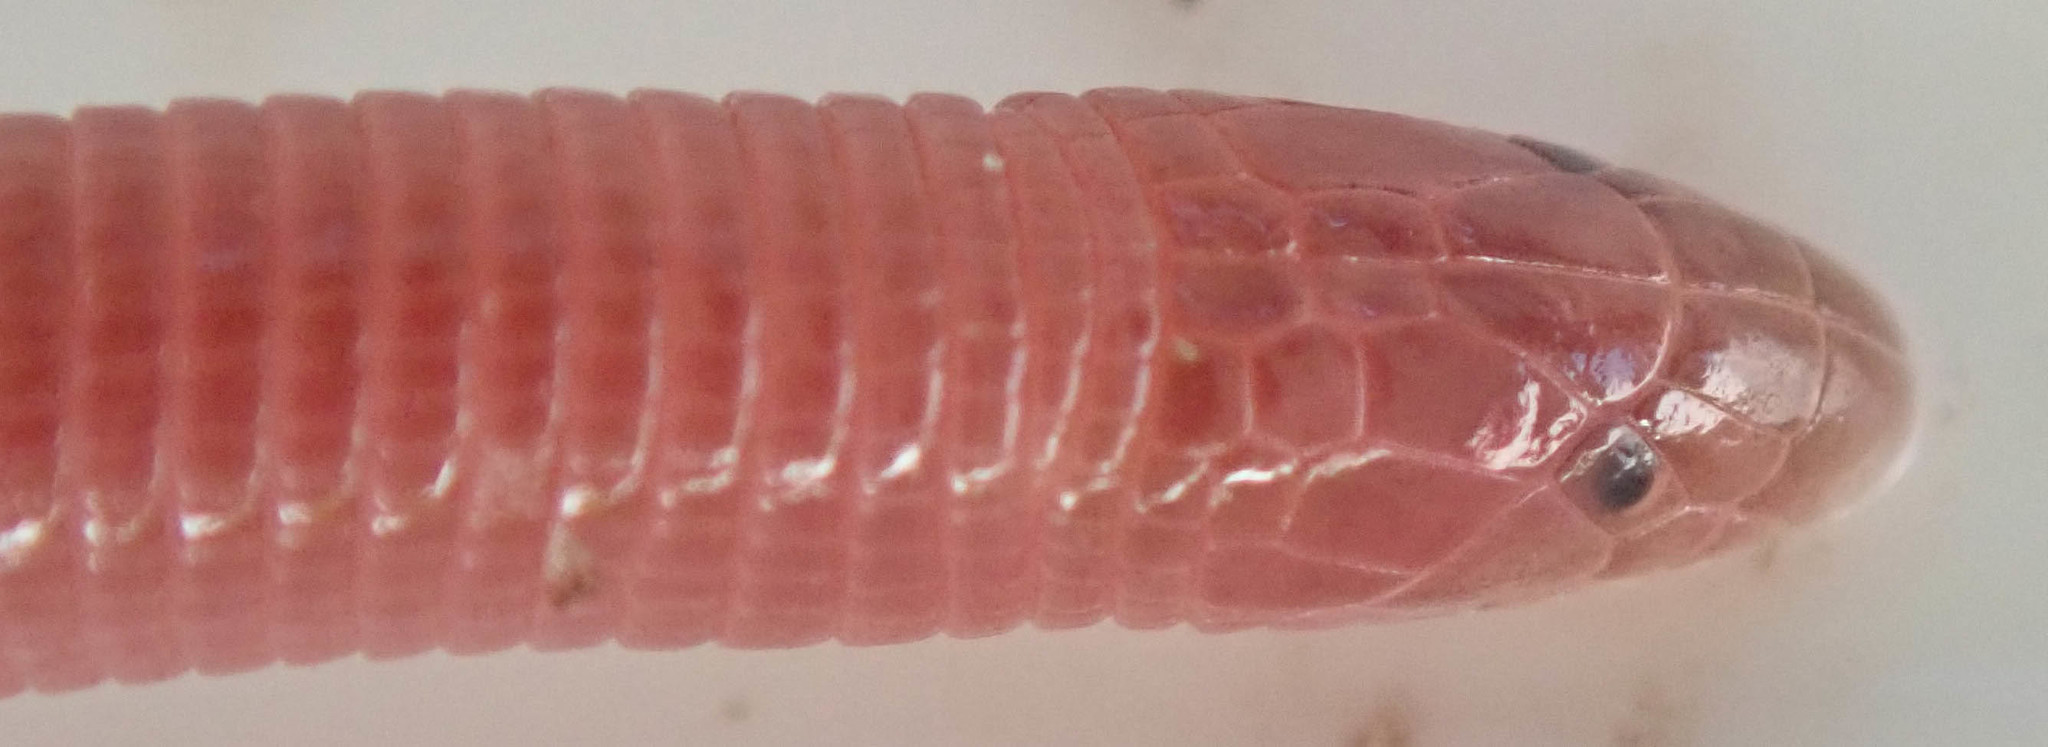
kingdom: Animalia
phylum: Chordata
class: Squamata
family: Amphisbaenidae
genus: Zygaspis
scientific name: Zygaspis quadrifrons
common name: Kalahari dwarf worm lizard
